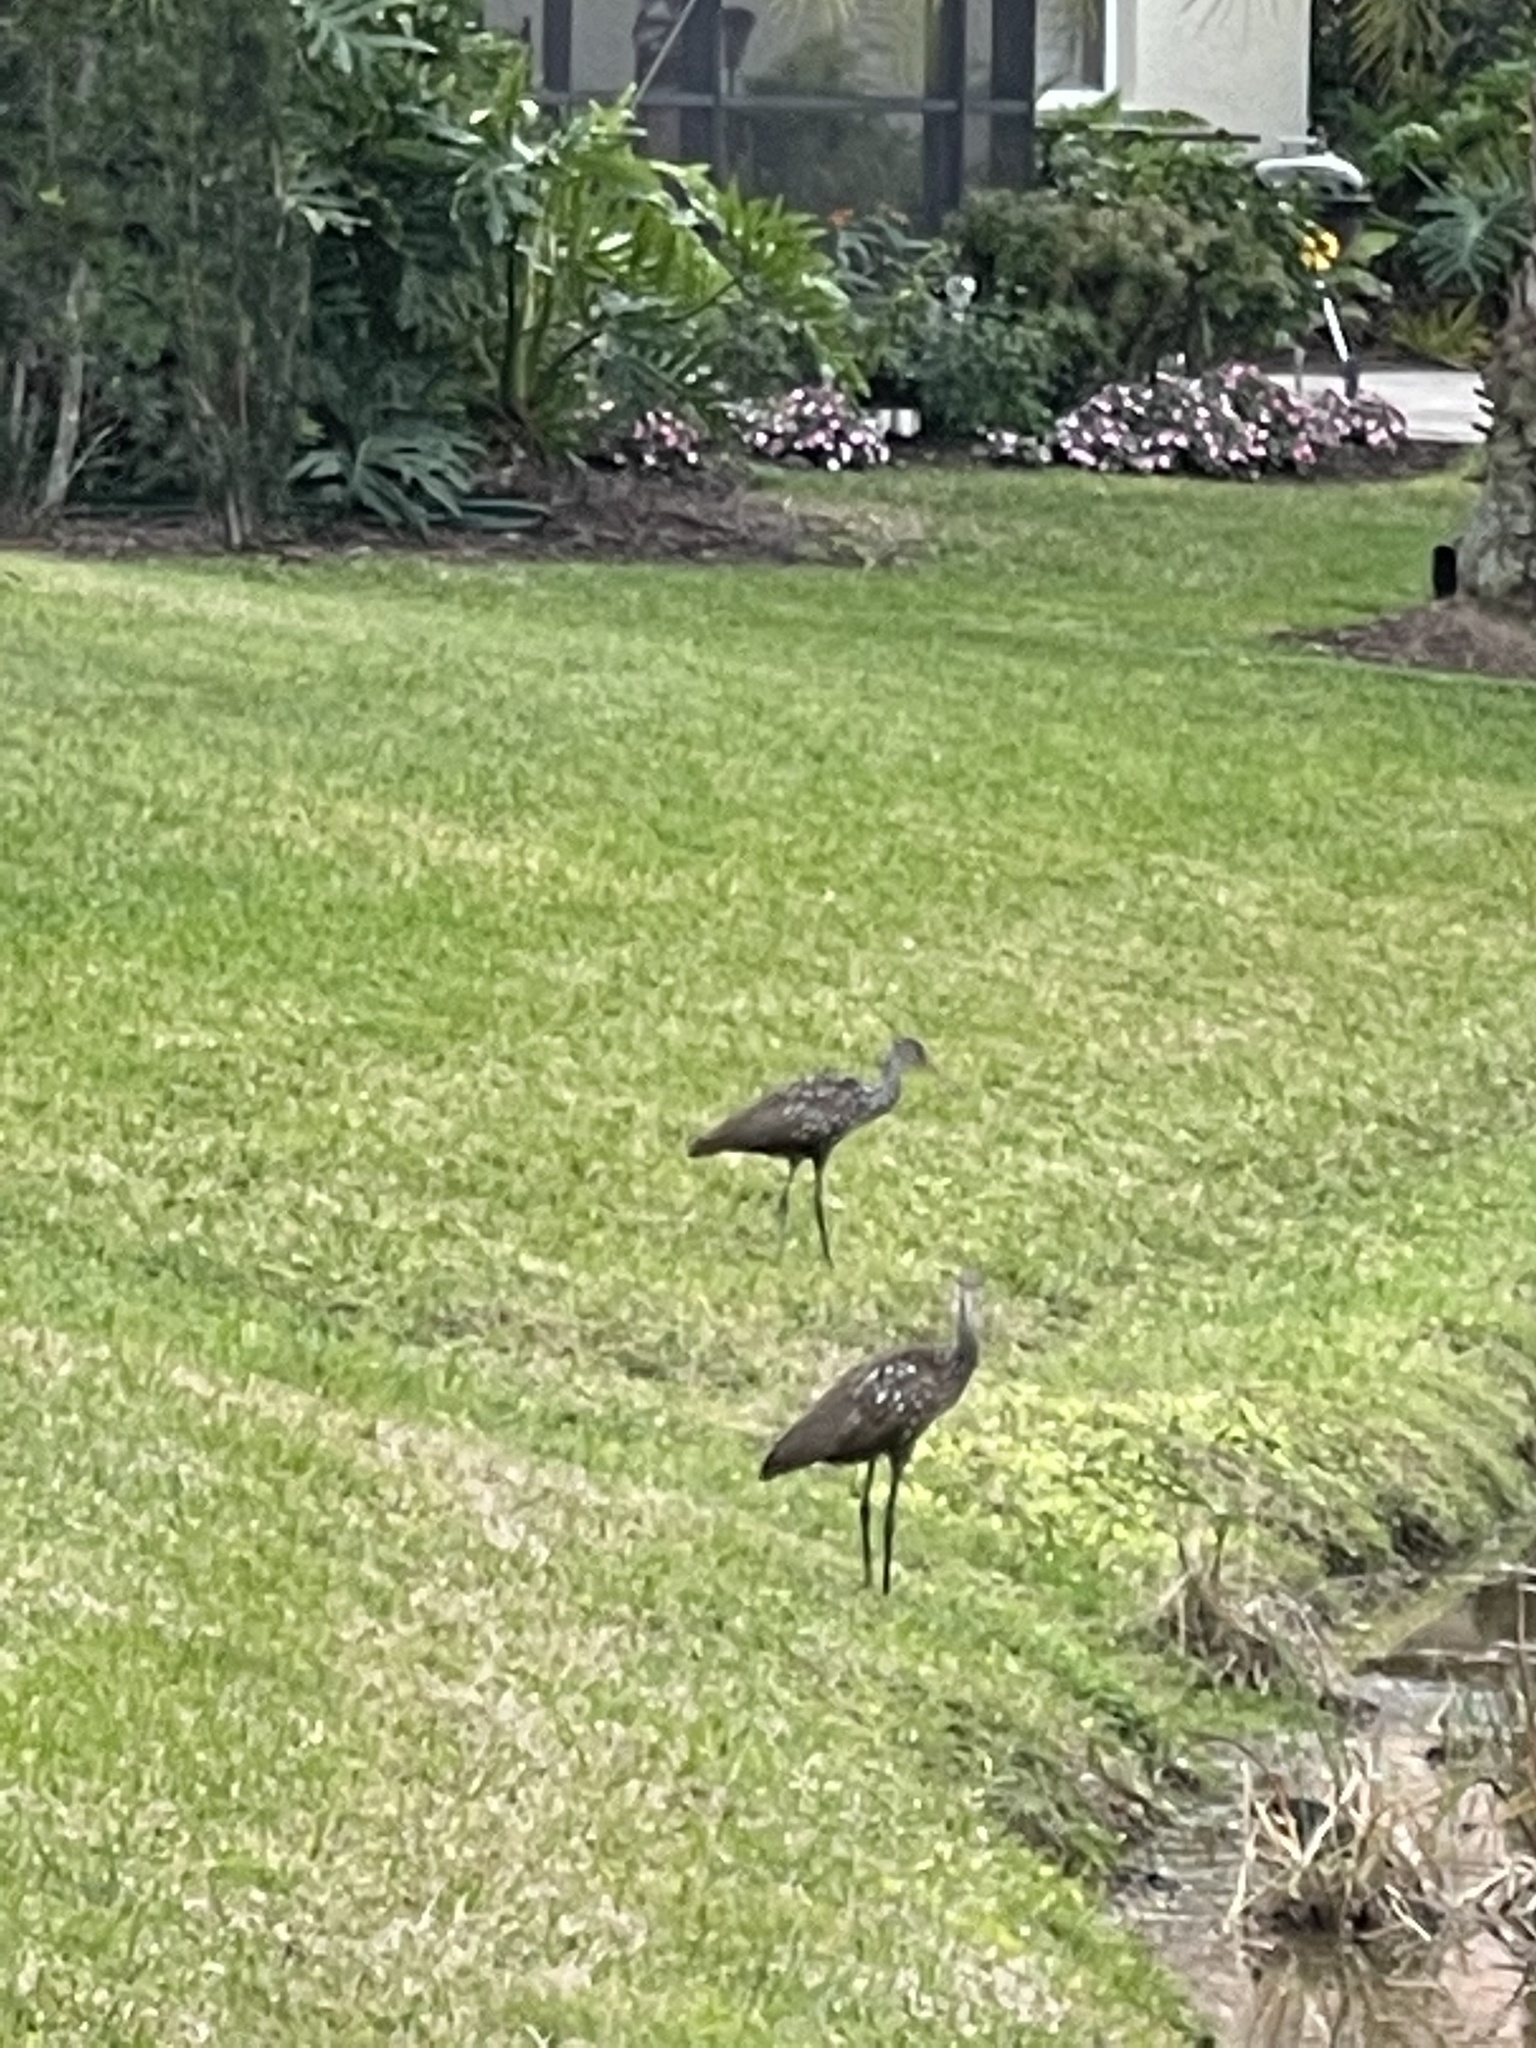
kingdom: Animalia
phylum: Chordata
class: Aves
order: Gruiformes
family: Aramidae
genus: Aramus
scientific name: Aramus guarauna
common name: Limpkin
